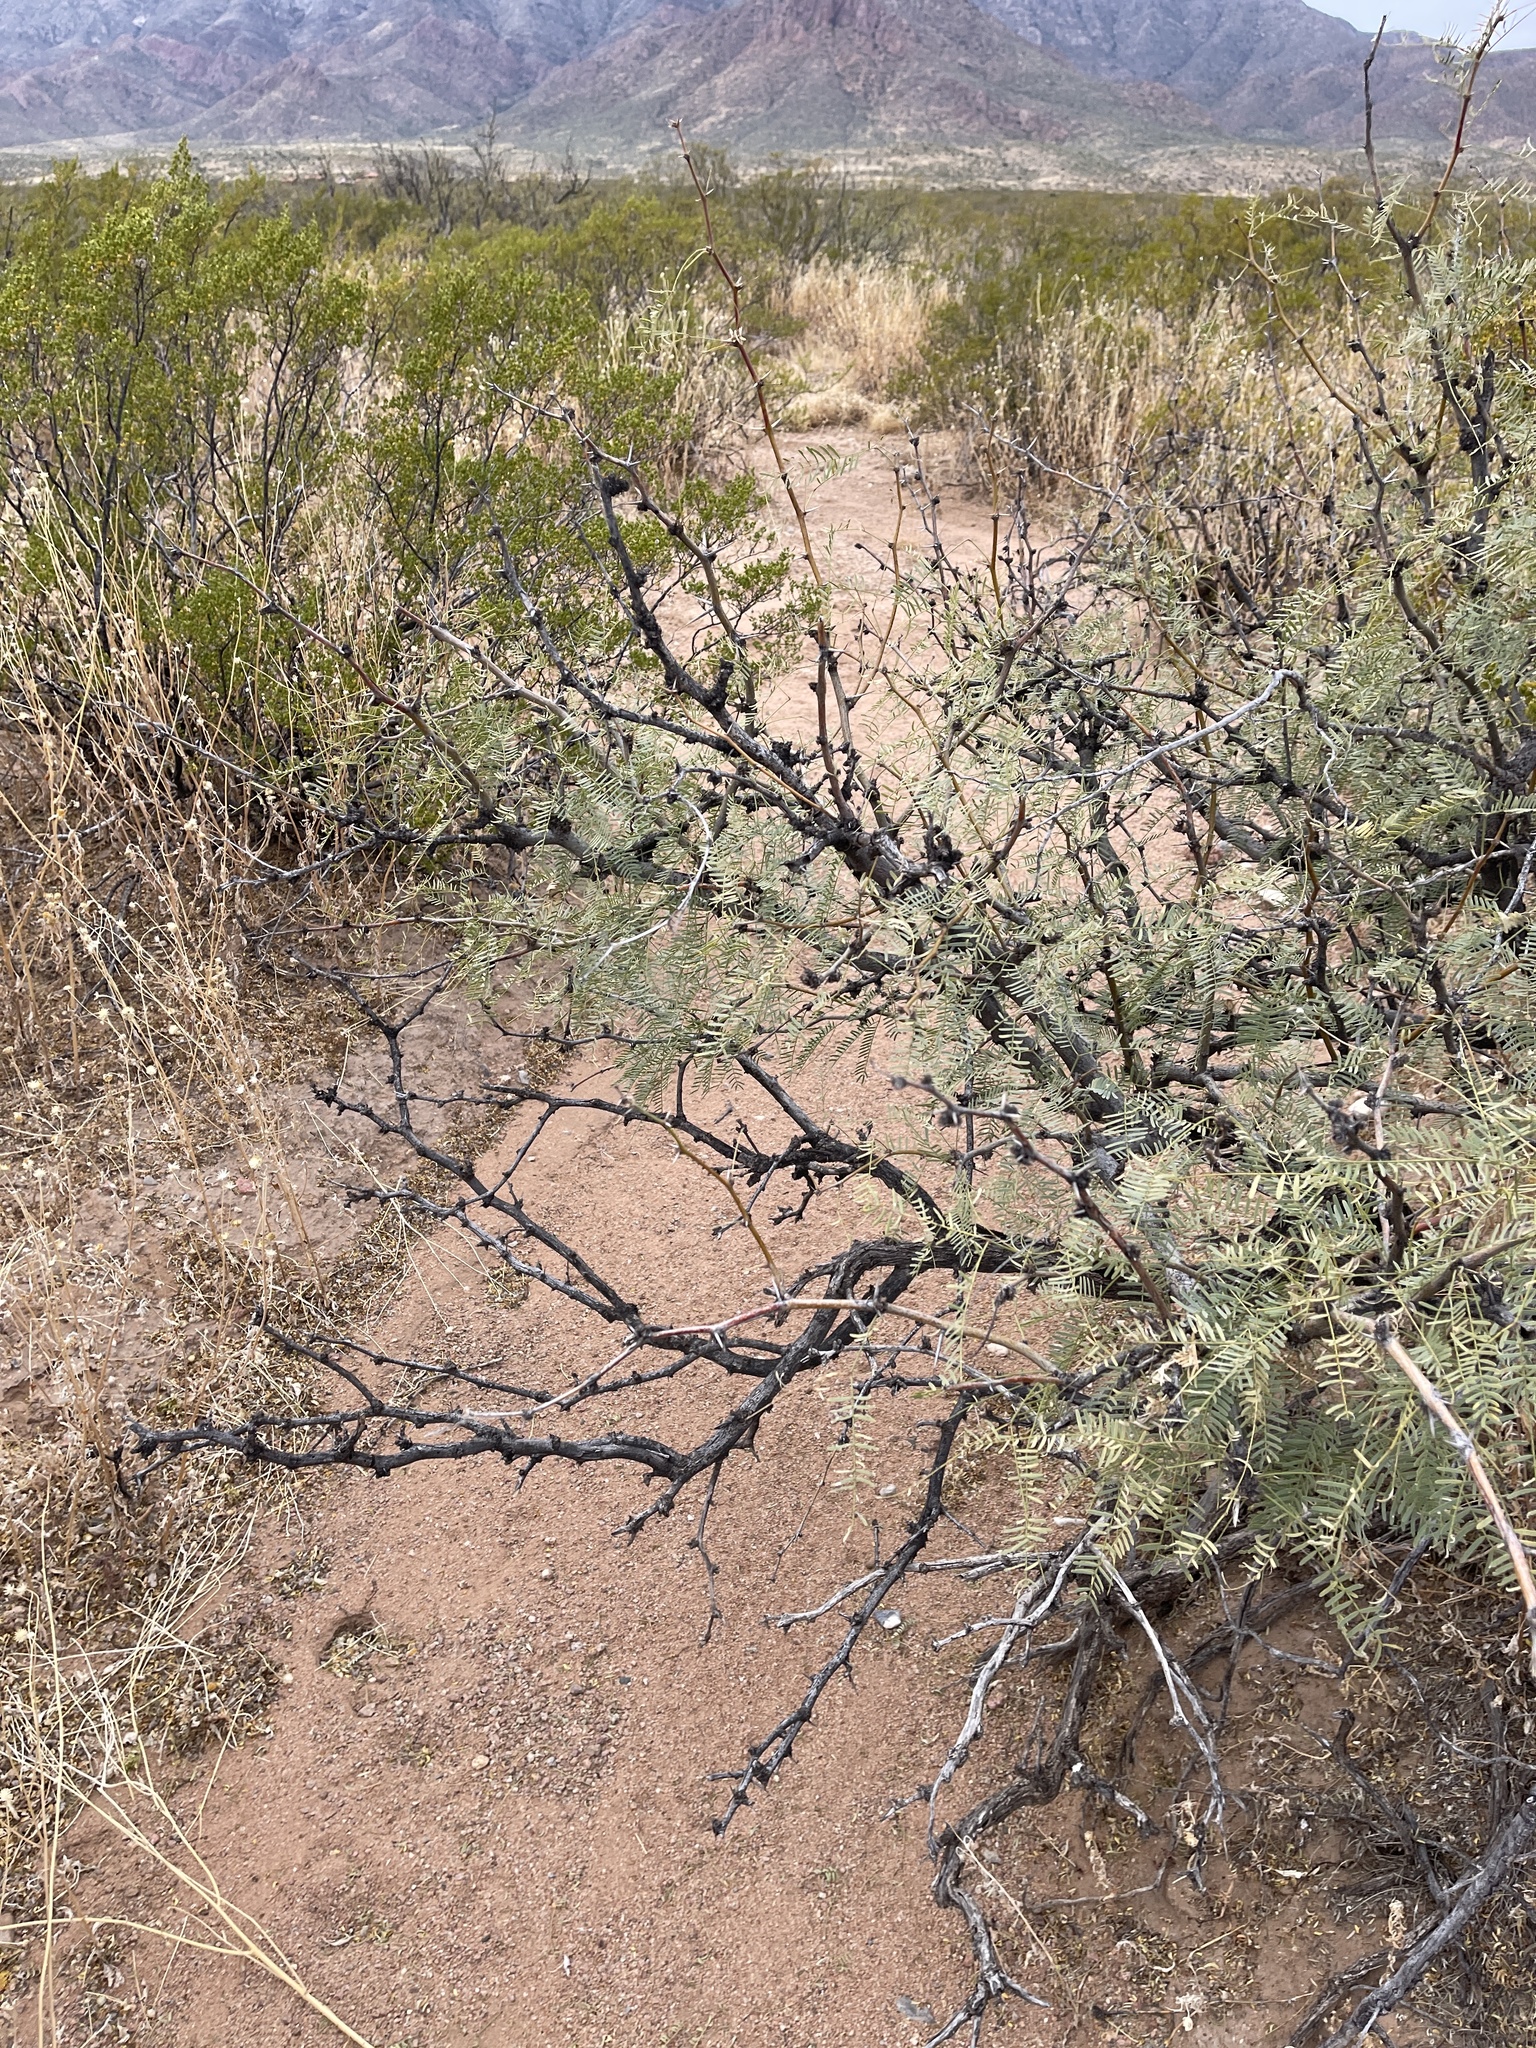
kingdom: Plantae
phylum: Tracheophyta
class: Magnoliopsida
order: Fabales
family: Fabaceae
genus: Prosopis
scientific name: Prosopis glandulosa
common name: Honey mesquite
